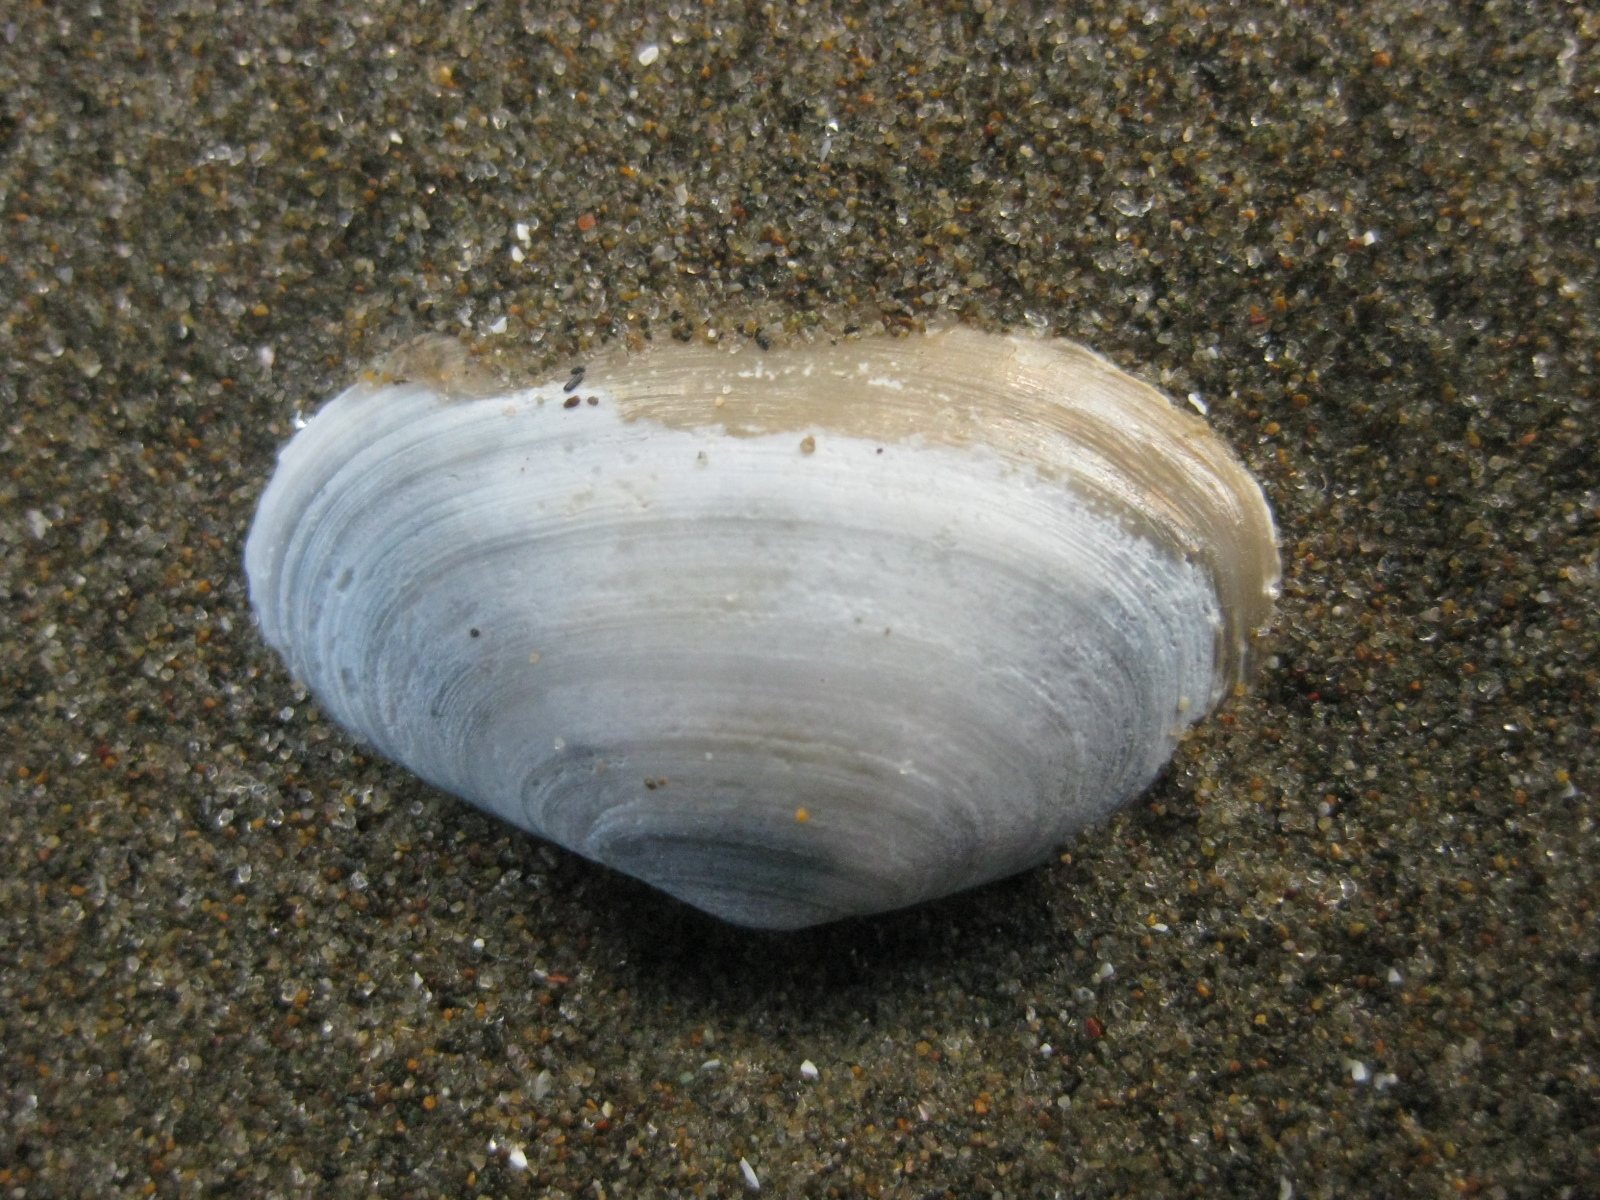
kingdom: Animalia
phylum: Mollusca
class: Bivalvia
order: Venerida
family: Mesodesmatidae
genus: Paphies
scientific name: Paphies australis
